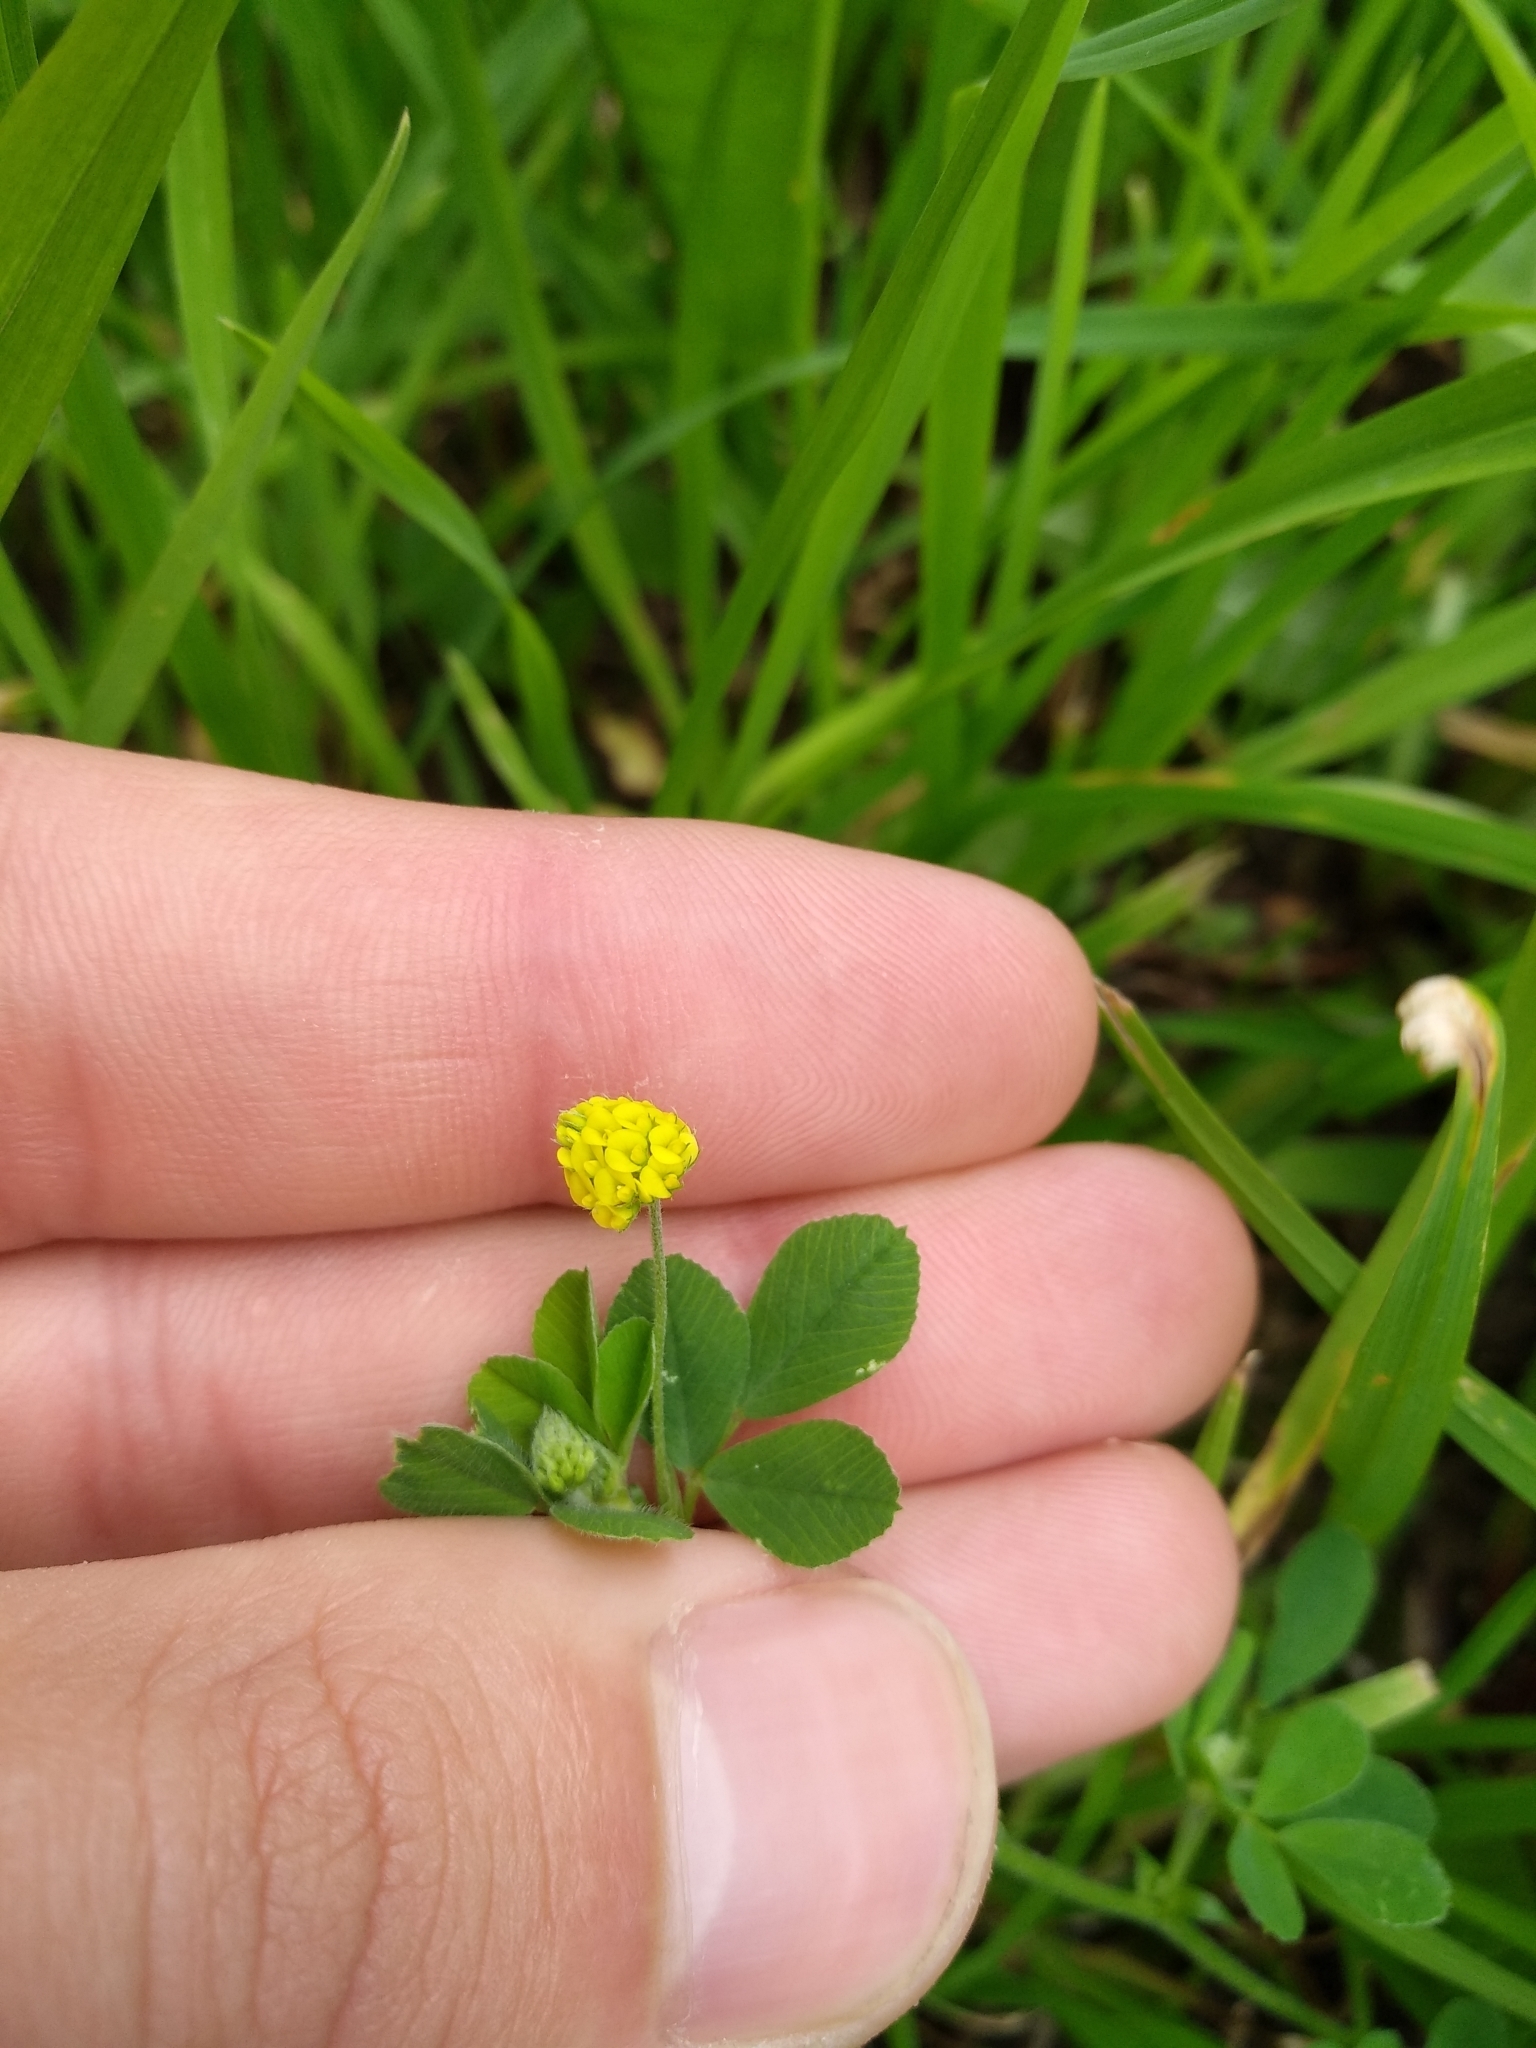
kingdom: Plantae
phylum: Tracheophyta
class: Magnoliopsida
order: Fabales
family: Fabaceae
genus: Medicago
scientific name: Medicago lupulina
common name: Black medick
